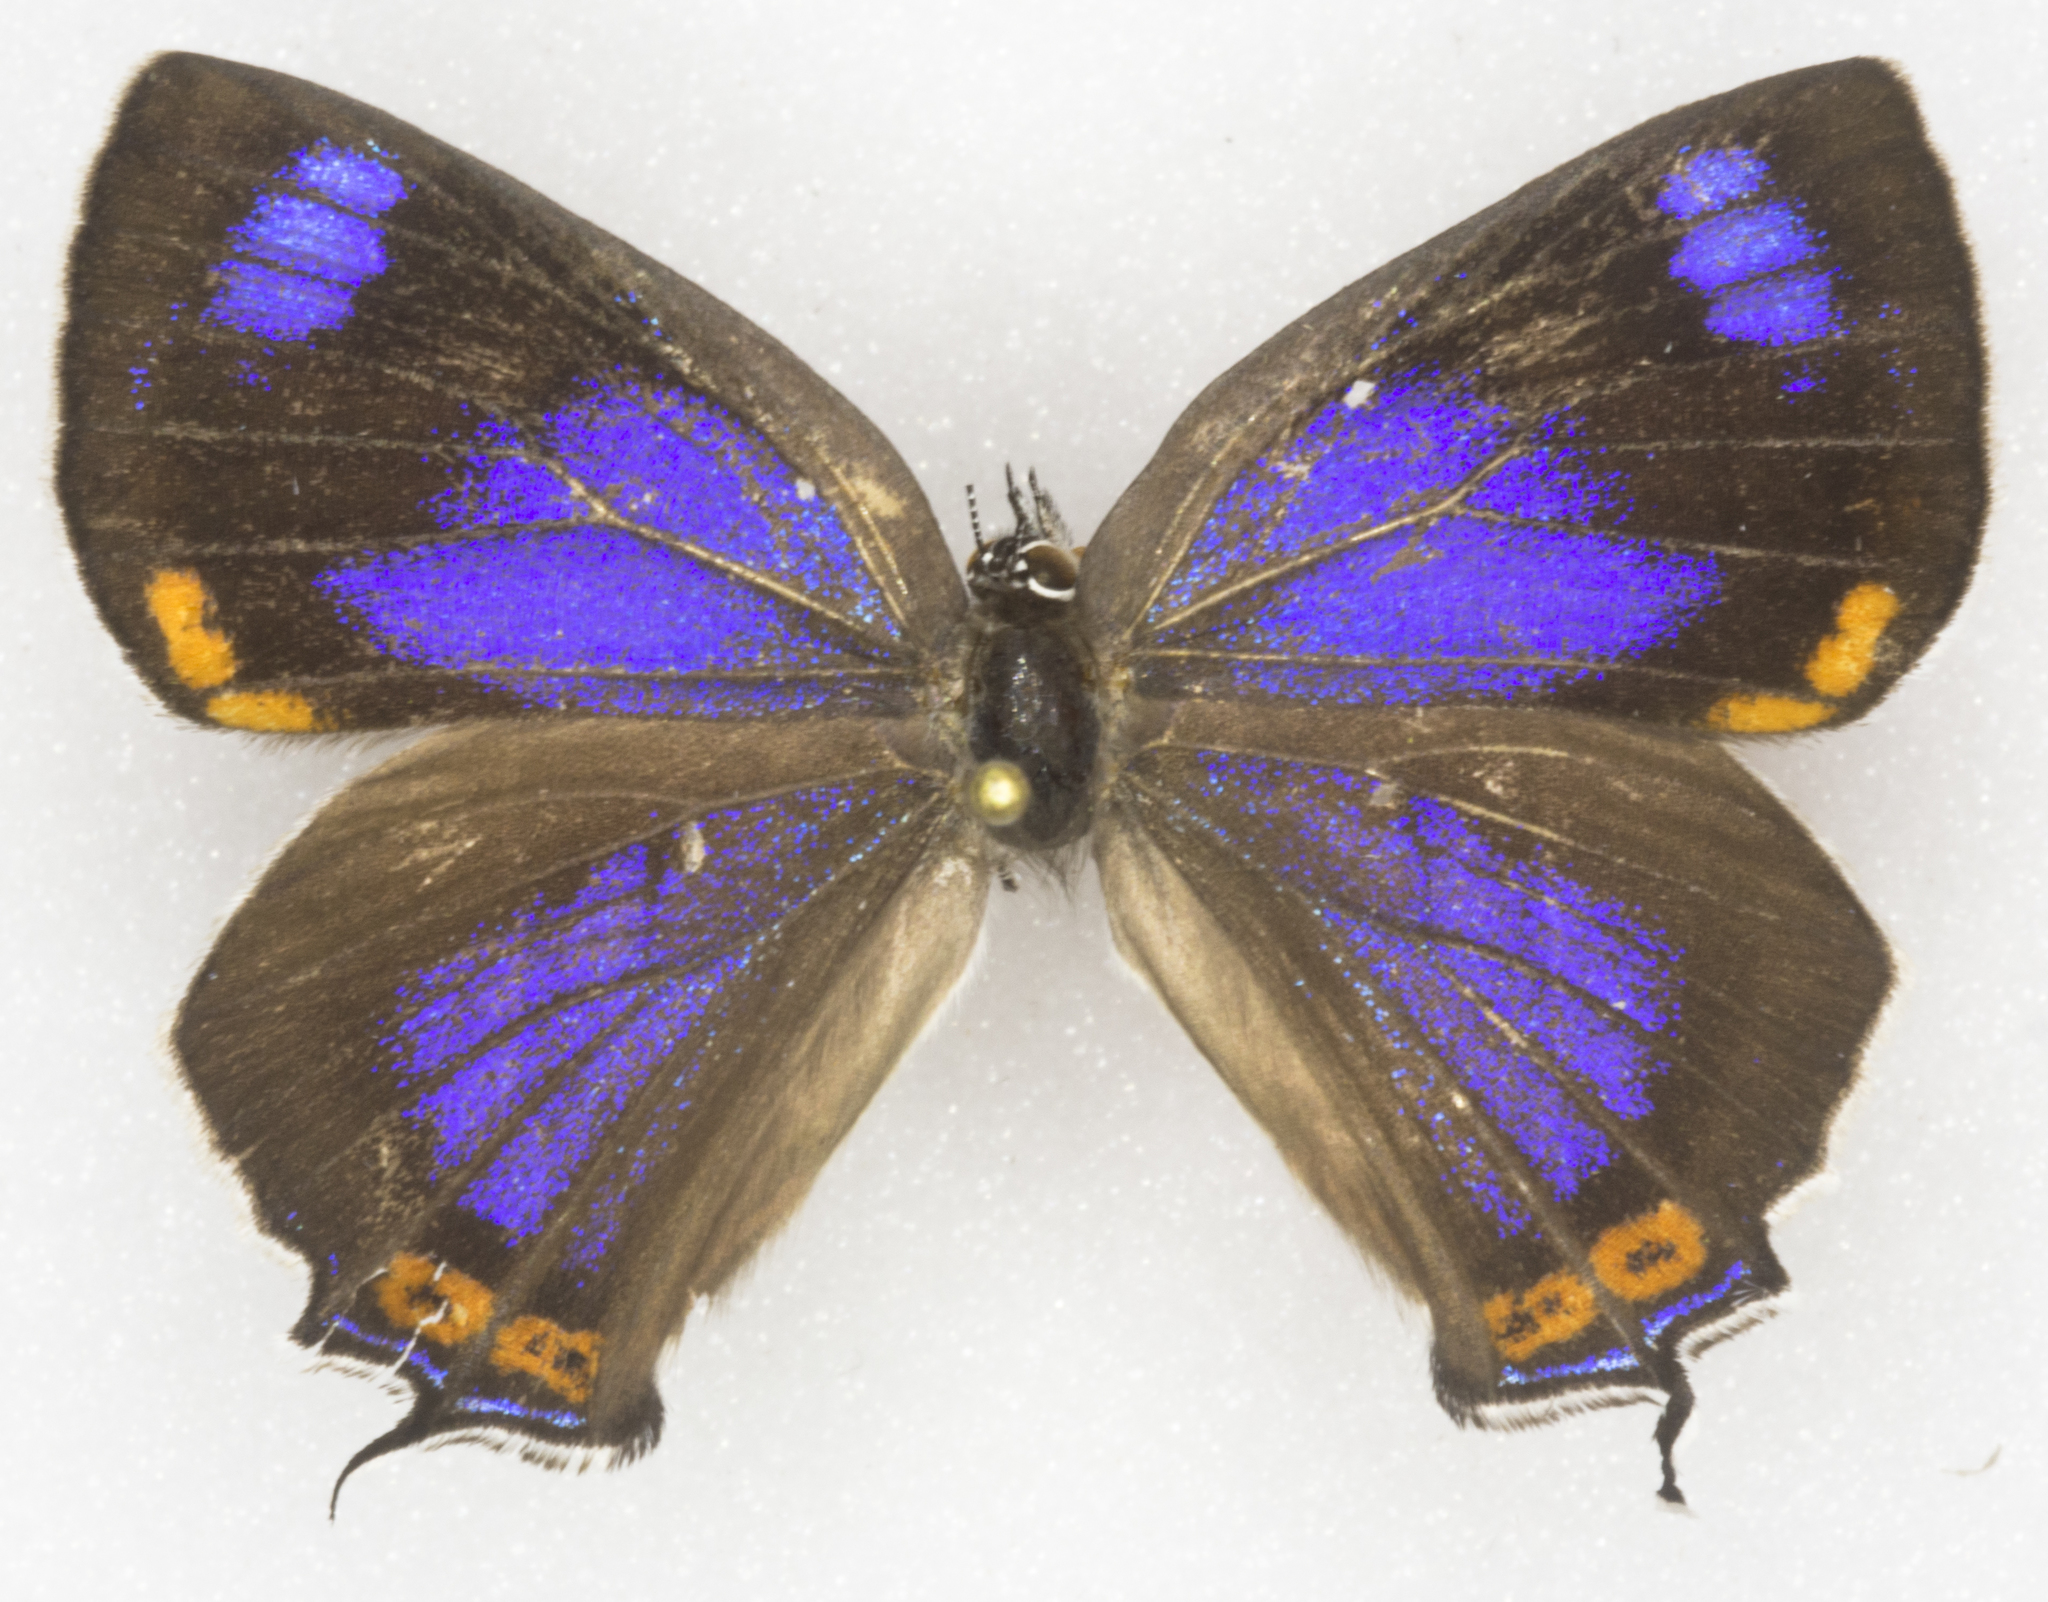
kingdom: Animalia
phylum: Arthropoda
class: Insecta
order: Lepidoptera
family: Lycaenidae
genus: Hypaurotis
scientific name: Hypaurotis crysalus
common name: Colorado hairstreak
